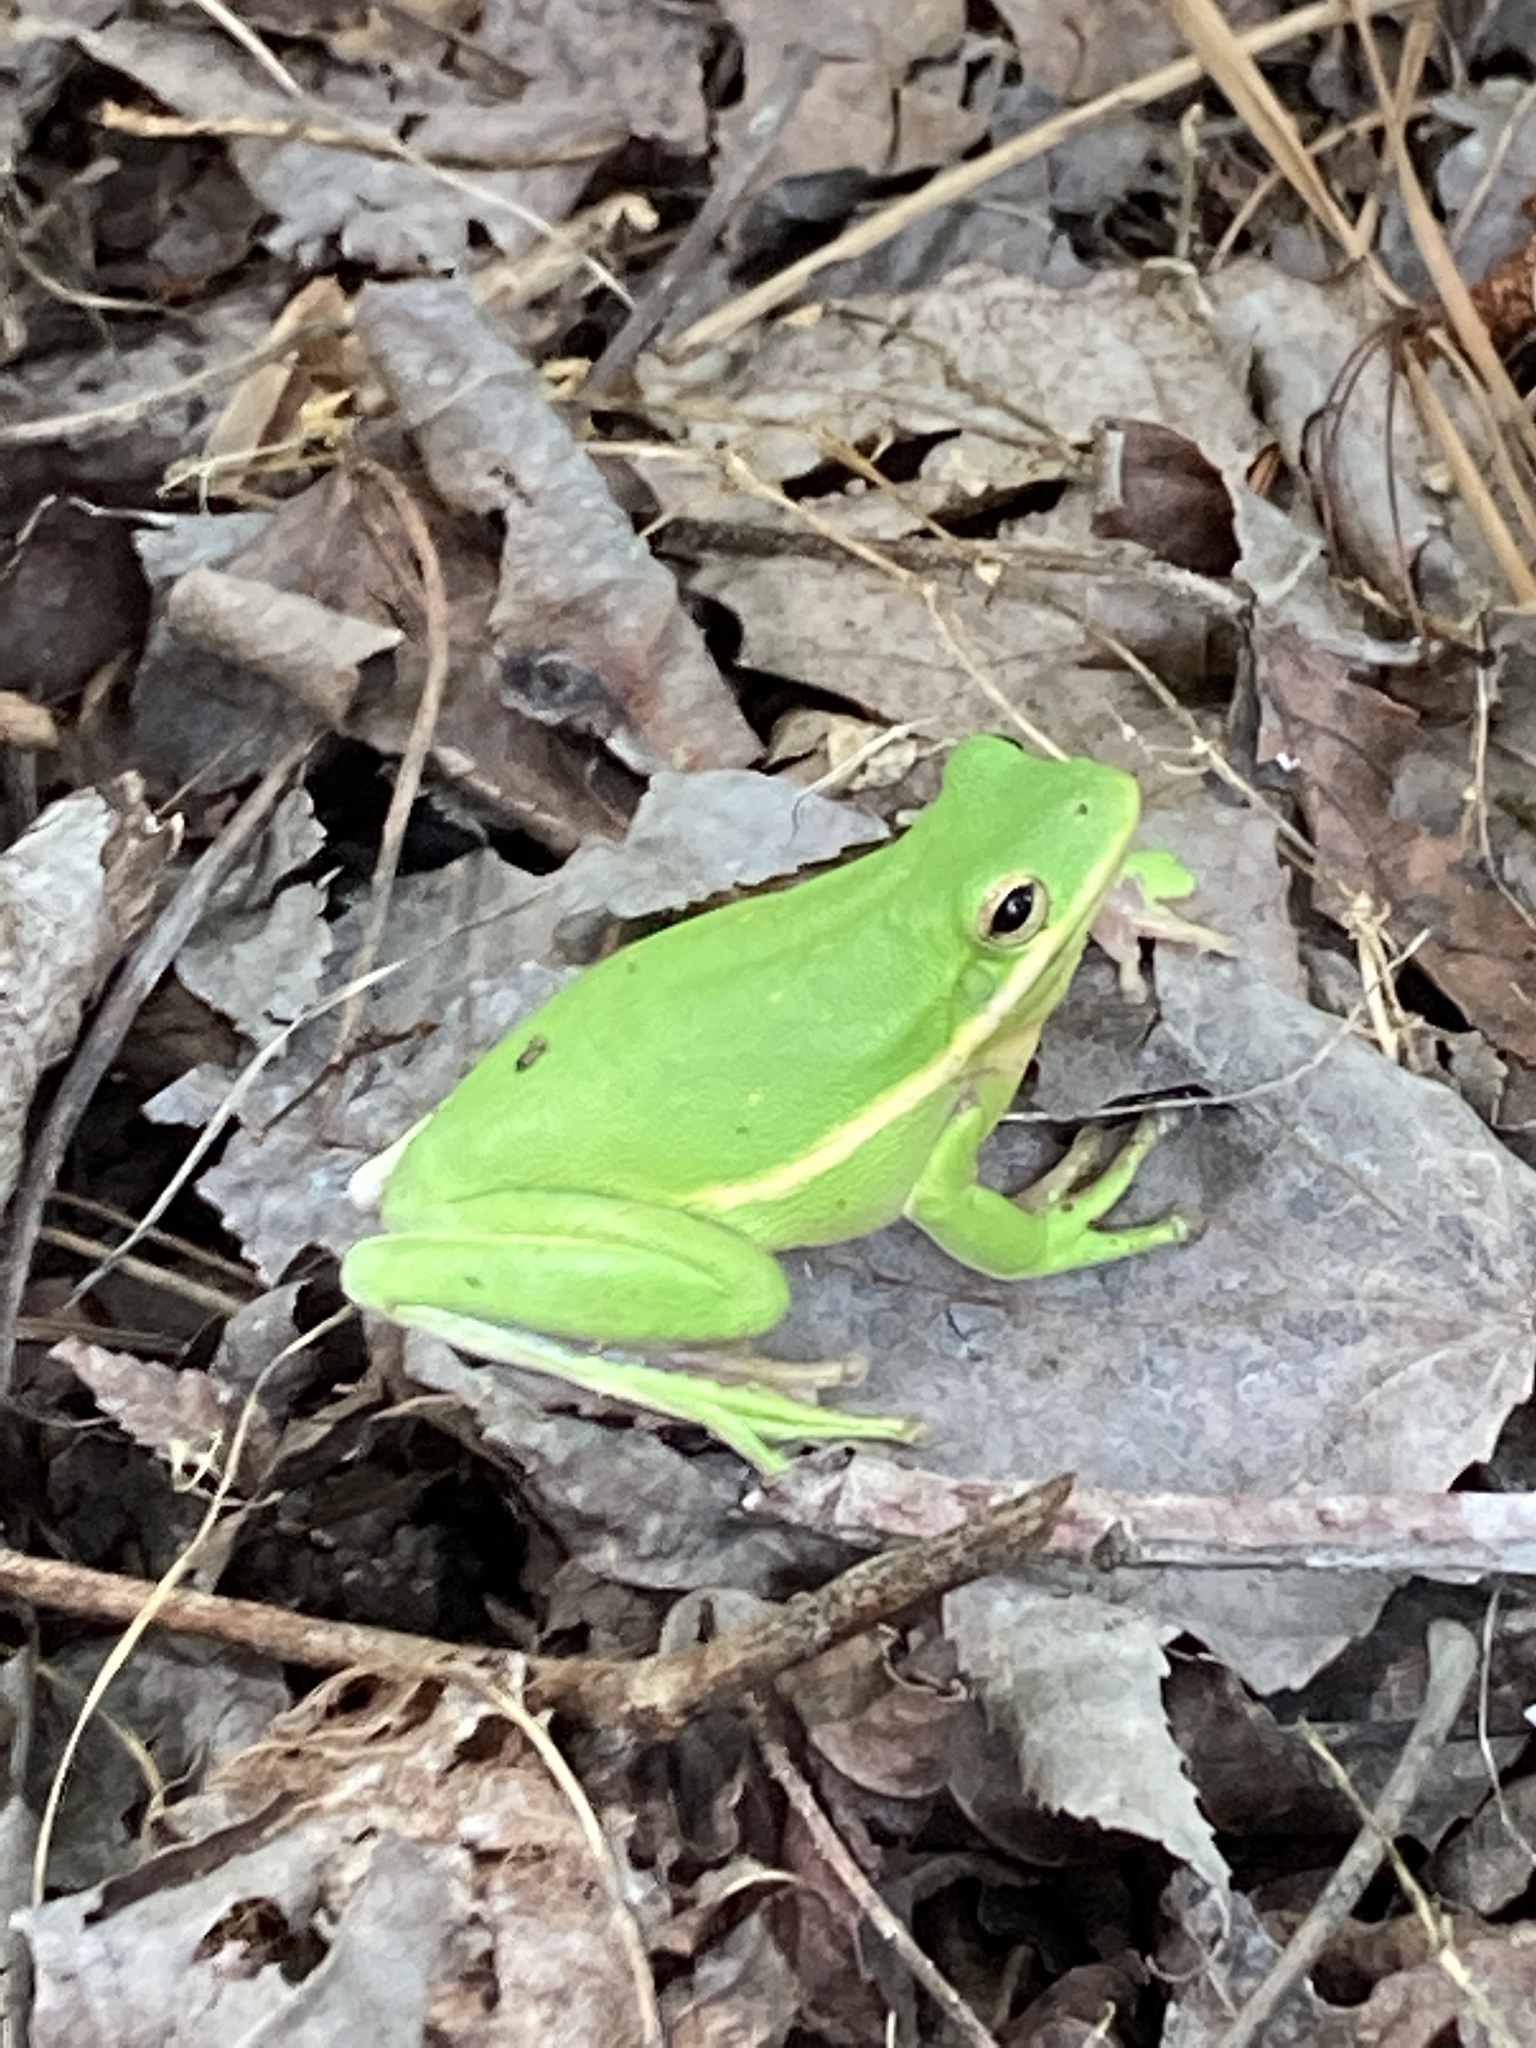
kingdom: Animalia
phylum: Chordata
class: Amphibia
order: Anura
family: Hylidae
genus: Dryophytes
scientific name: Dryophytes cinereus
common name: Green treefrog
